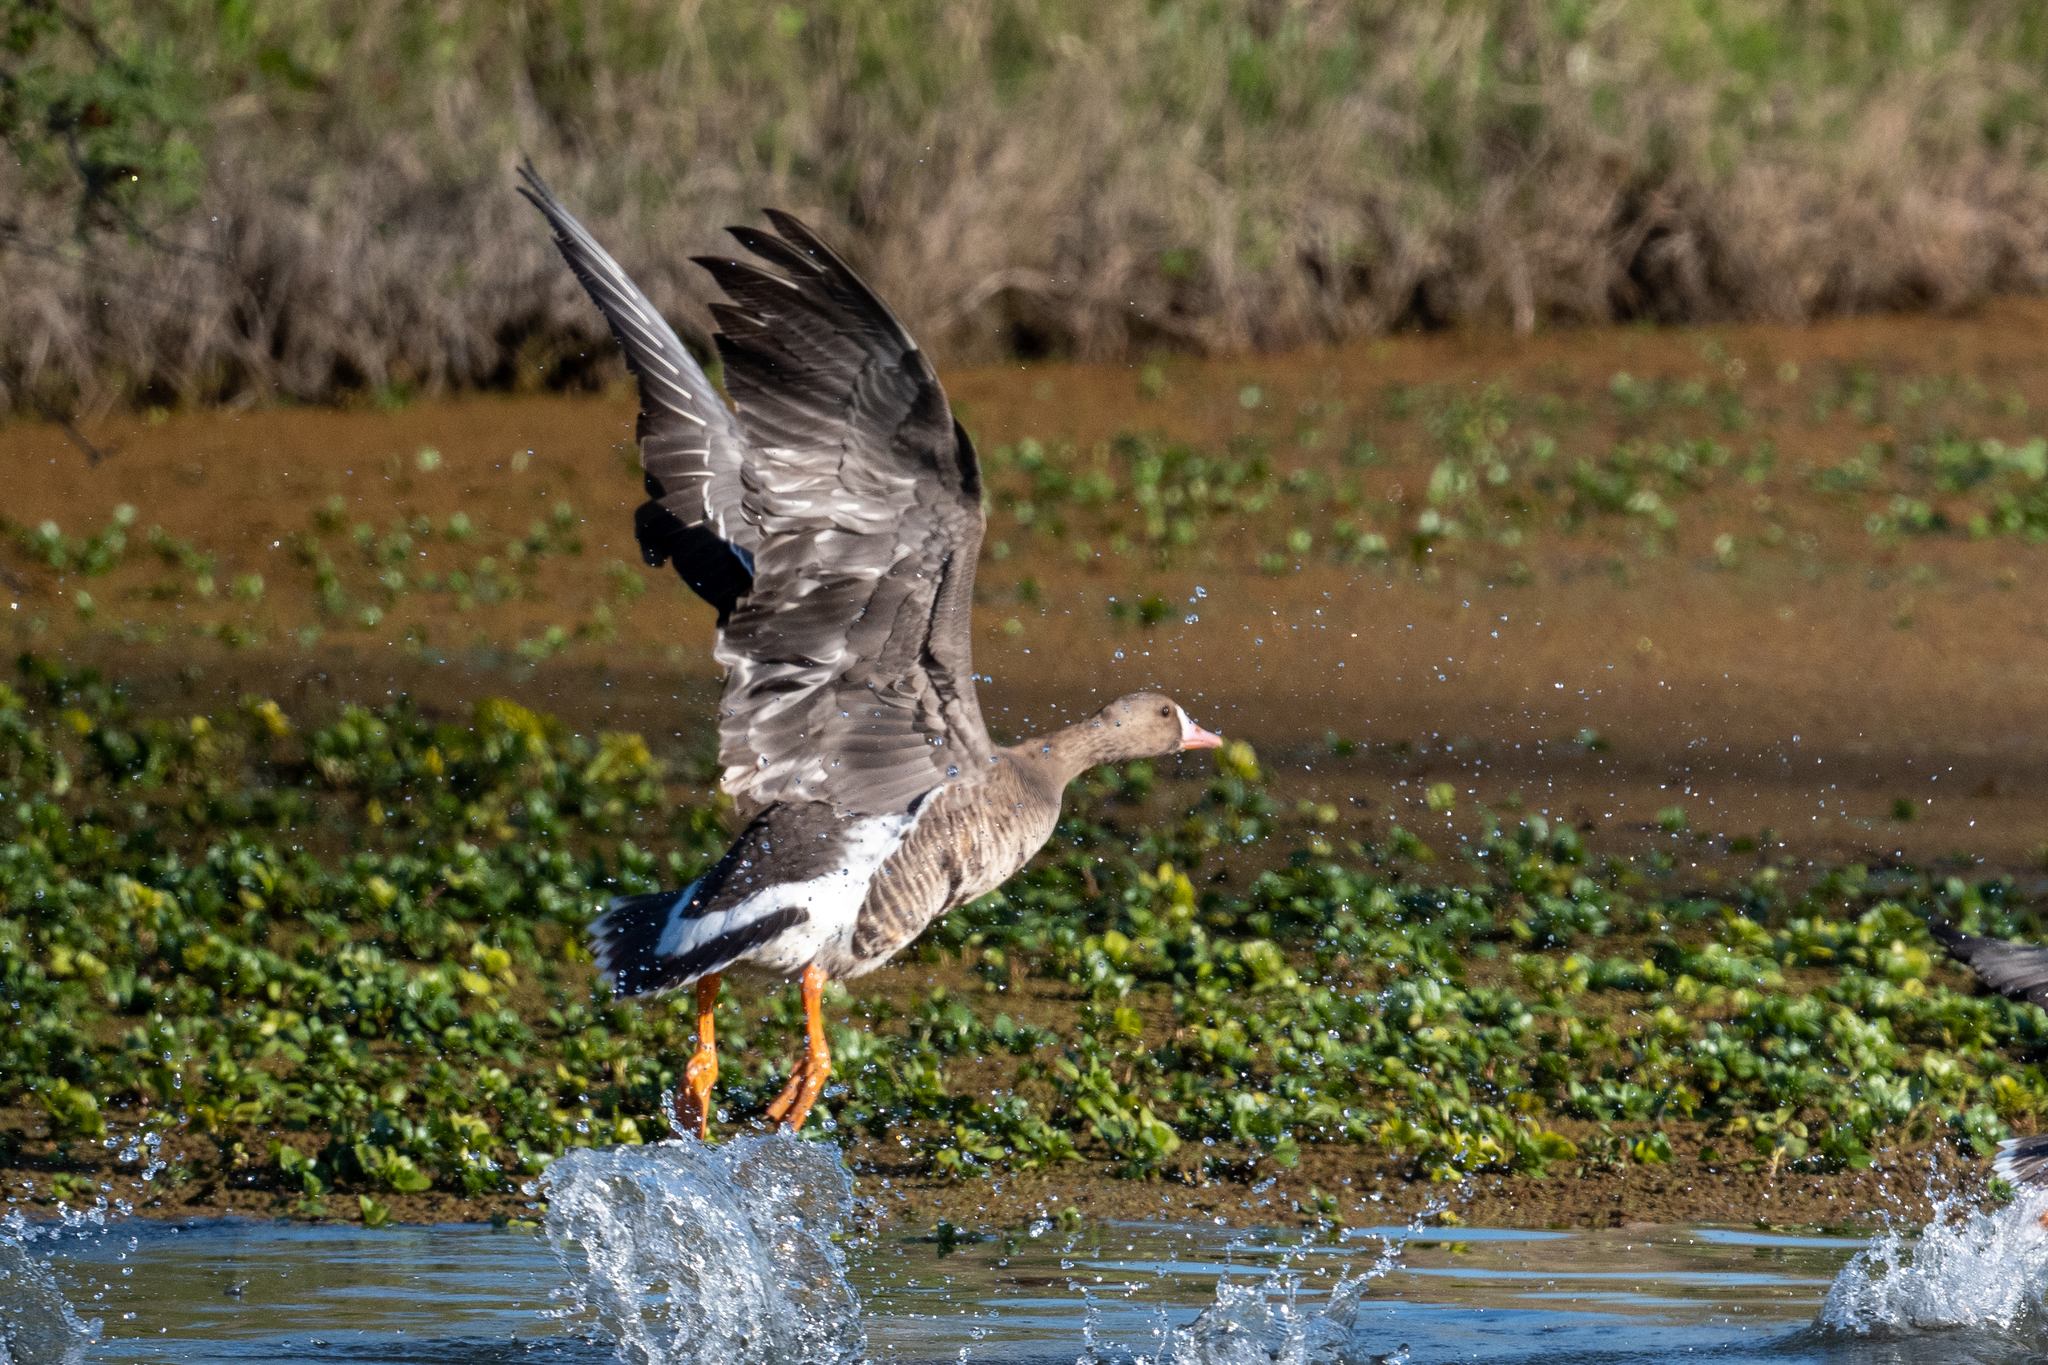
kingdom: Animalia
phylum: Chordata
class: Aves
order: Anseriformes
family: Anatidae
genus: Anser
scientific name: Anser albifrons
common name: Greater white-fronted goose
